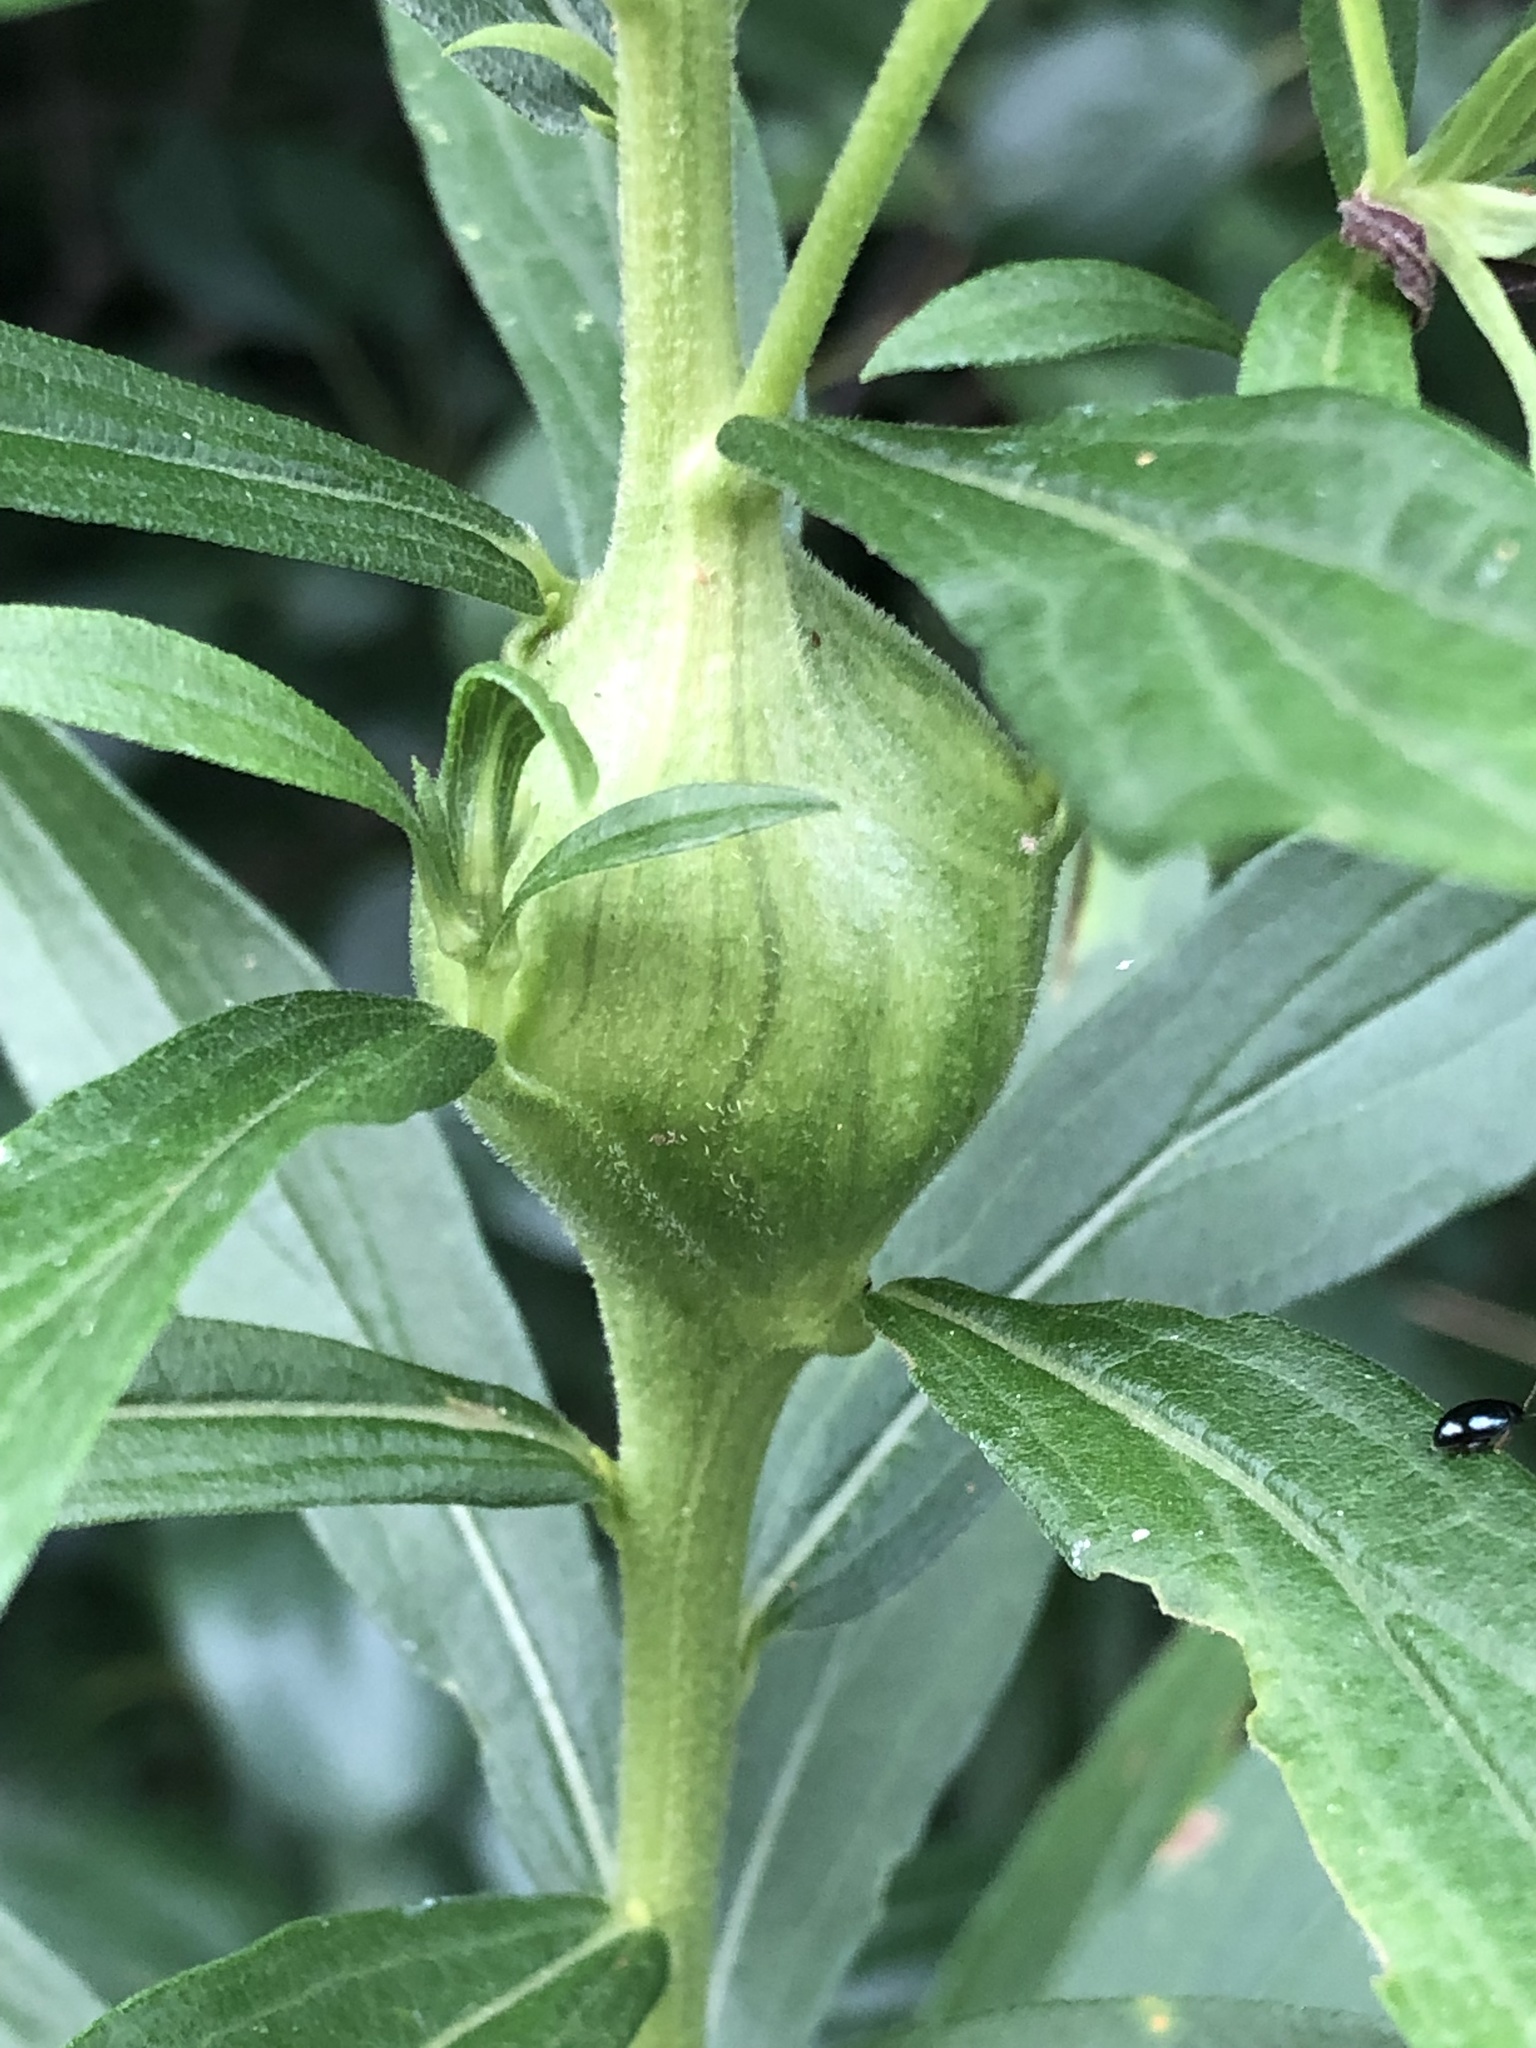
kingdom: Animalia
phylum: Arthropoda
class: Insecta
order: Diptera
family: Tephritidae
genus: Eurosta
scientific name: Eurosta solidaginis
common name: Goldenrod gall fly
